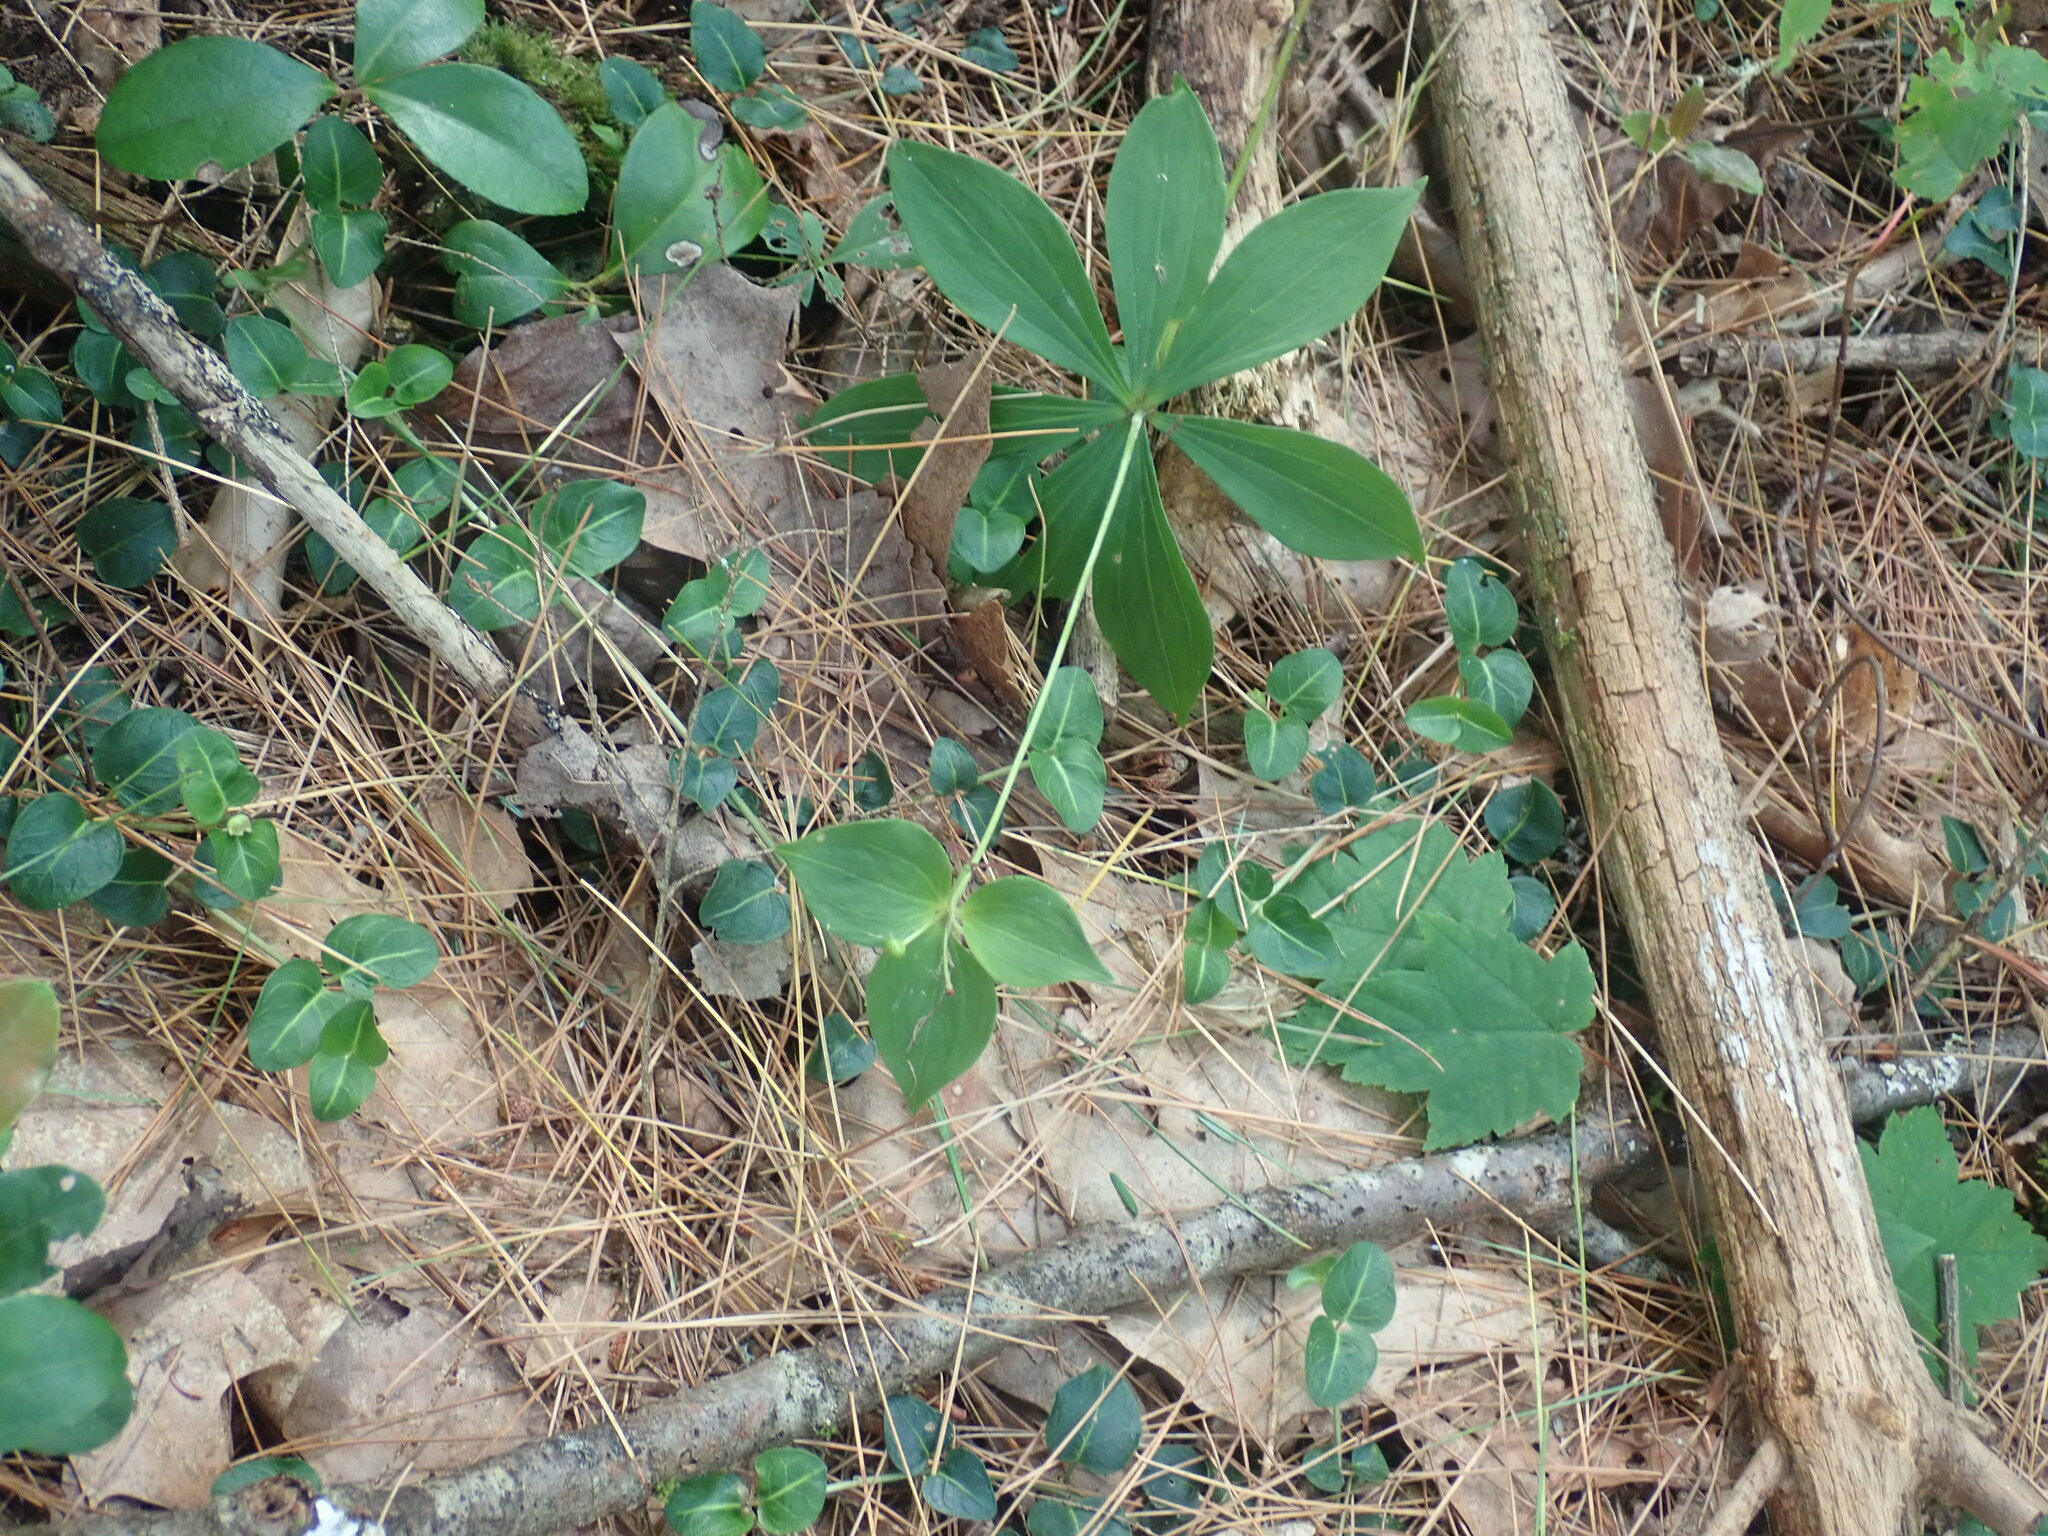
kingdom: Plantae
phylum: Tracheophyta
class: Liliopsida
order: Liliales
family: Liliaceae
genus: Medeola
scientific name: Medeola virginiana
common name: Indian cucumber-root
